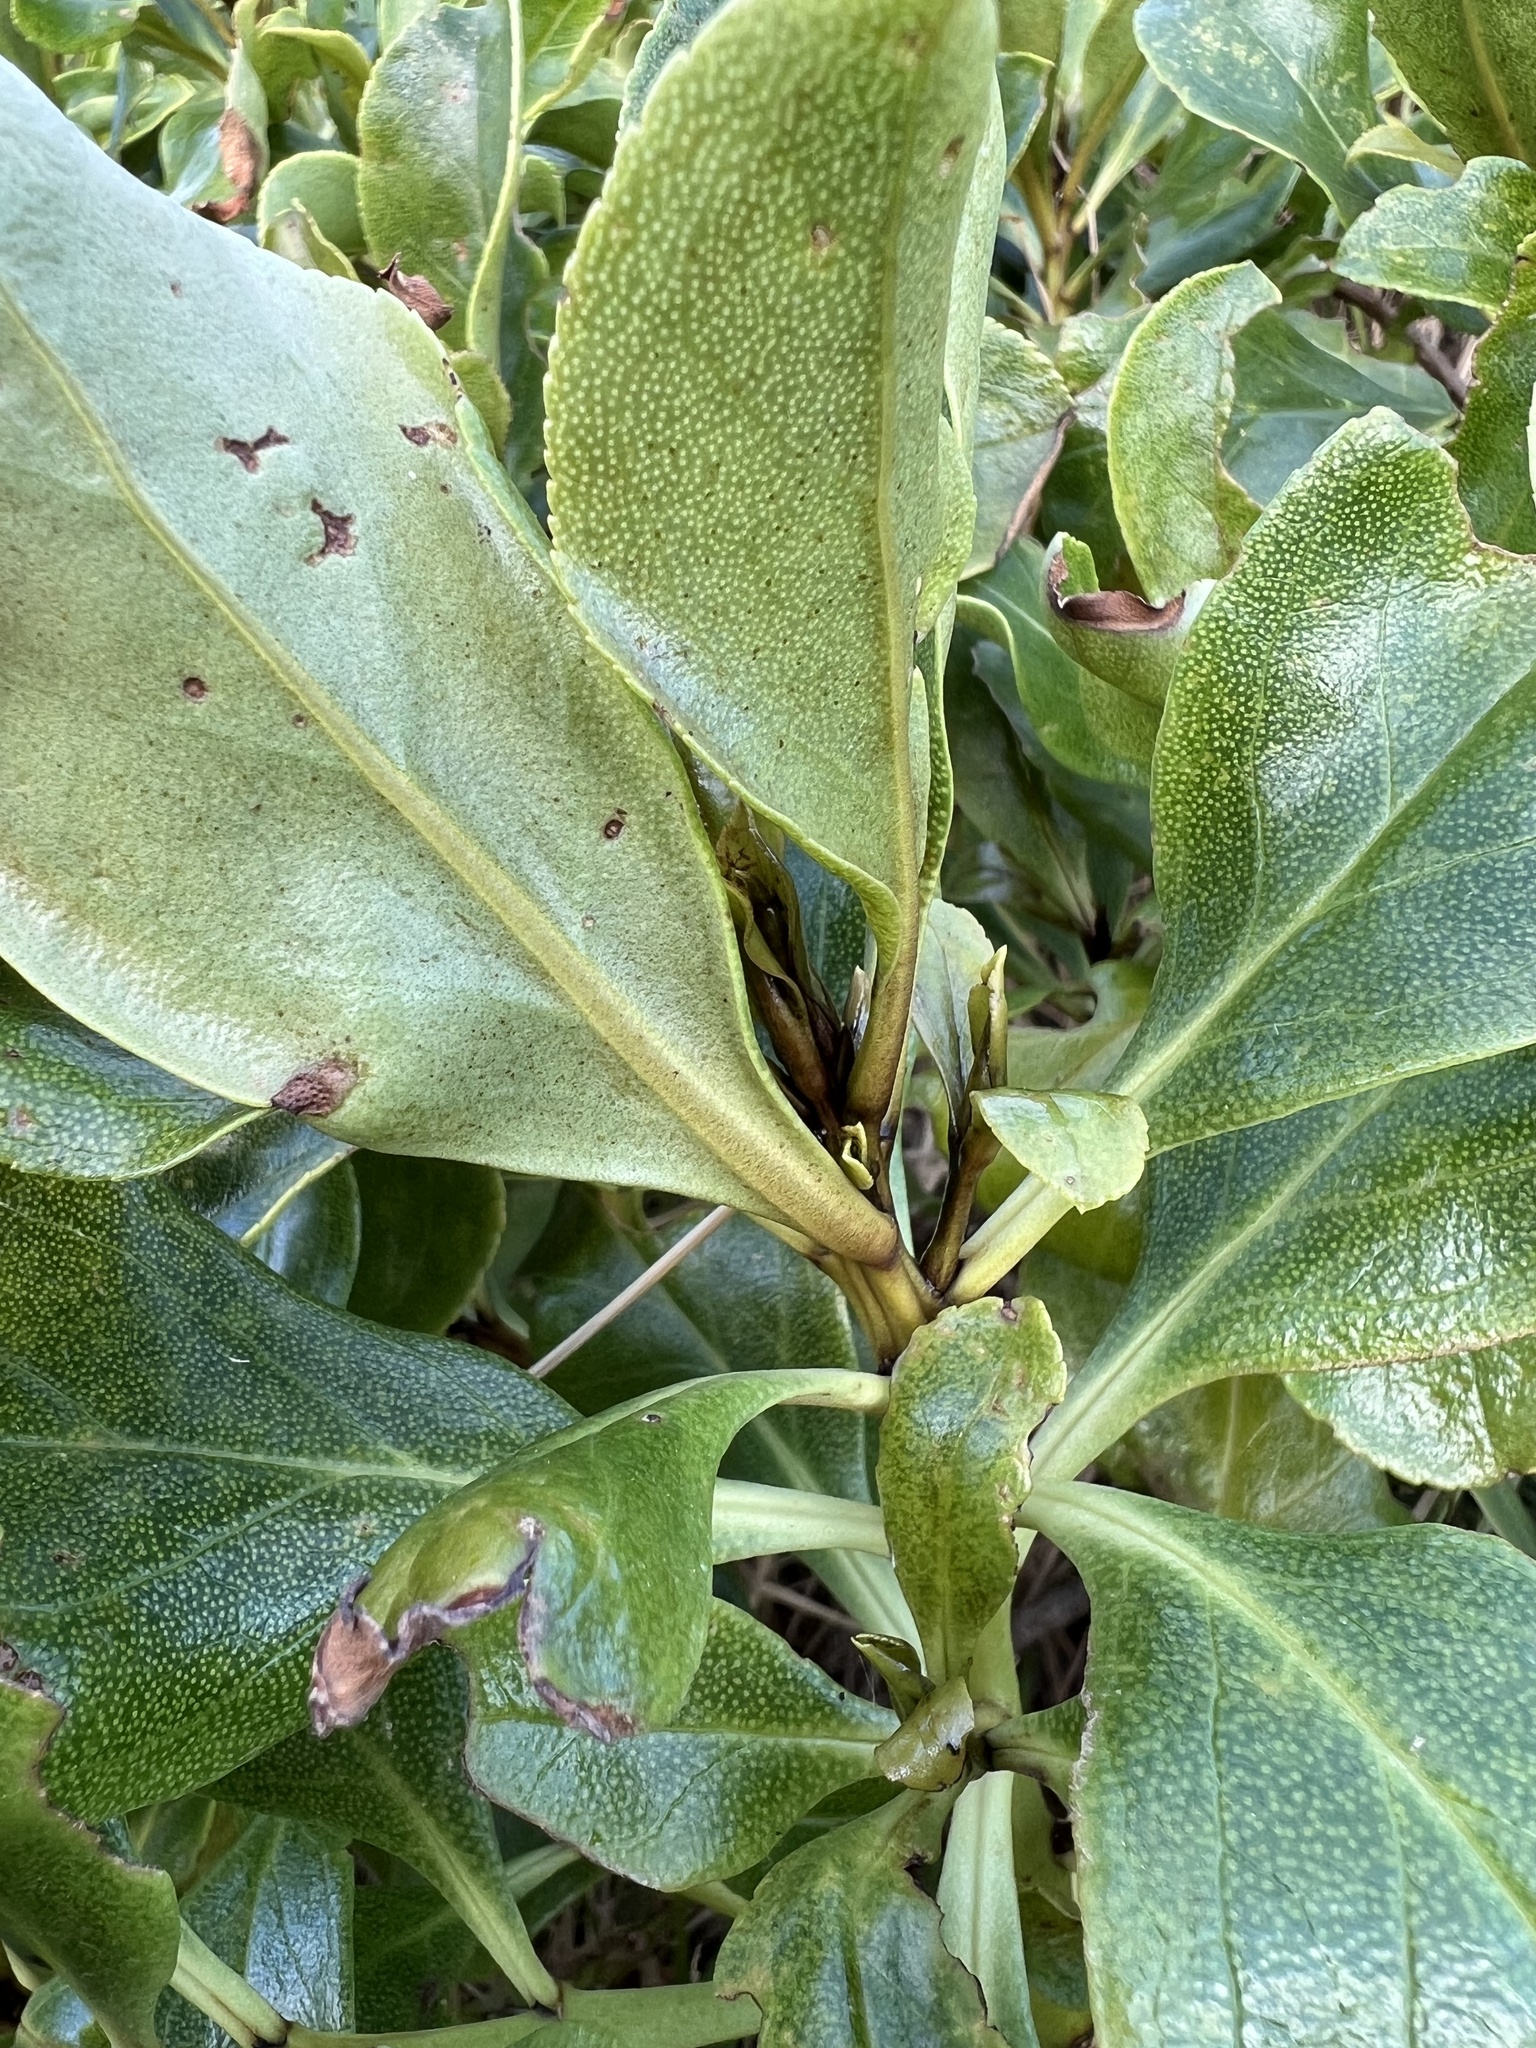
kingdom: Plantae
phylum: Tracheophyta
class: Magnoliopsida
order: Lamiales
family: Scrophulariaceae
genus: Myoporum
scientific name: Myoporum laetum
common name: Ngaio tree
